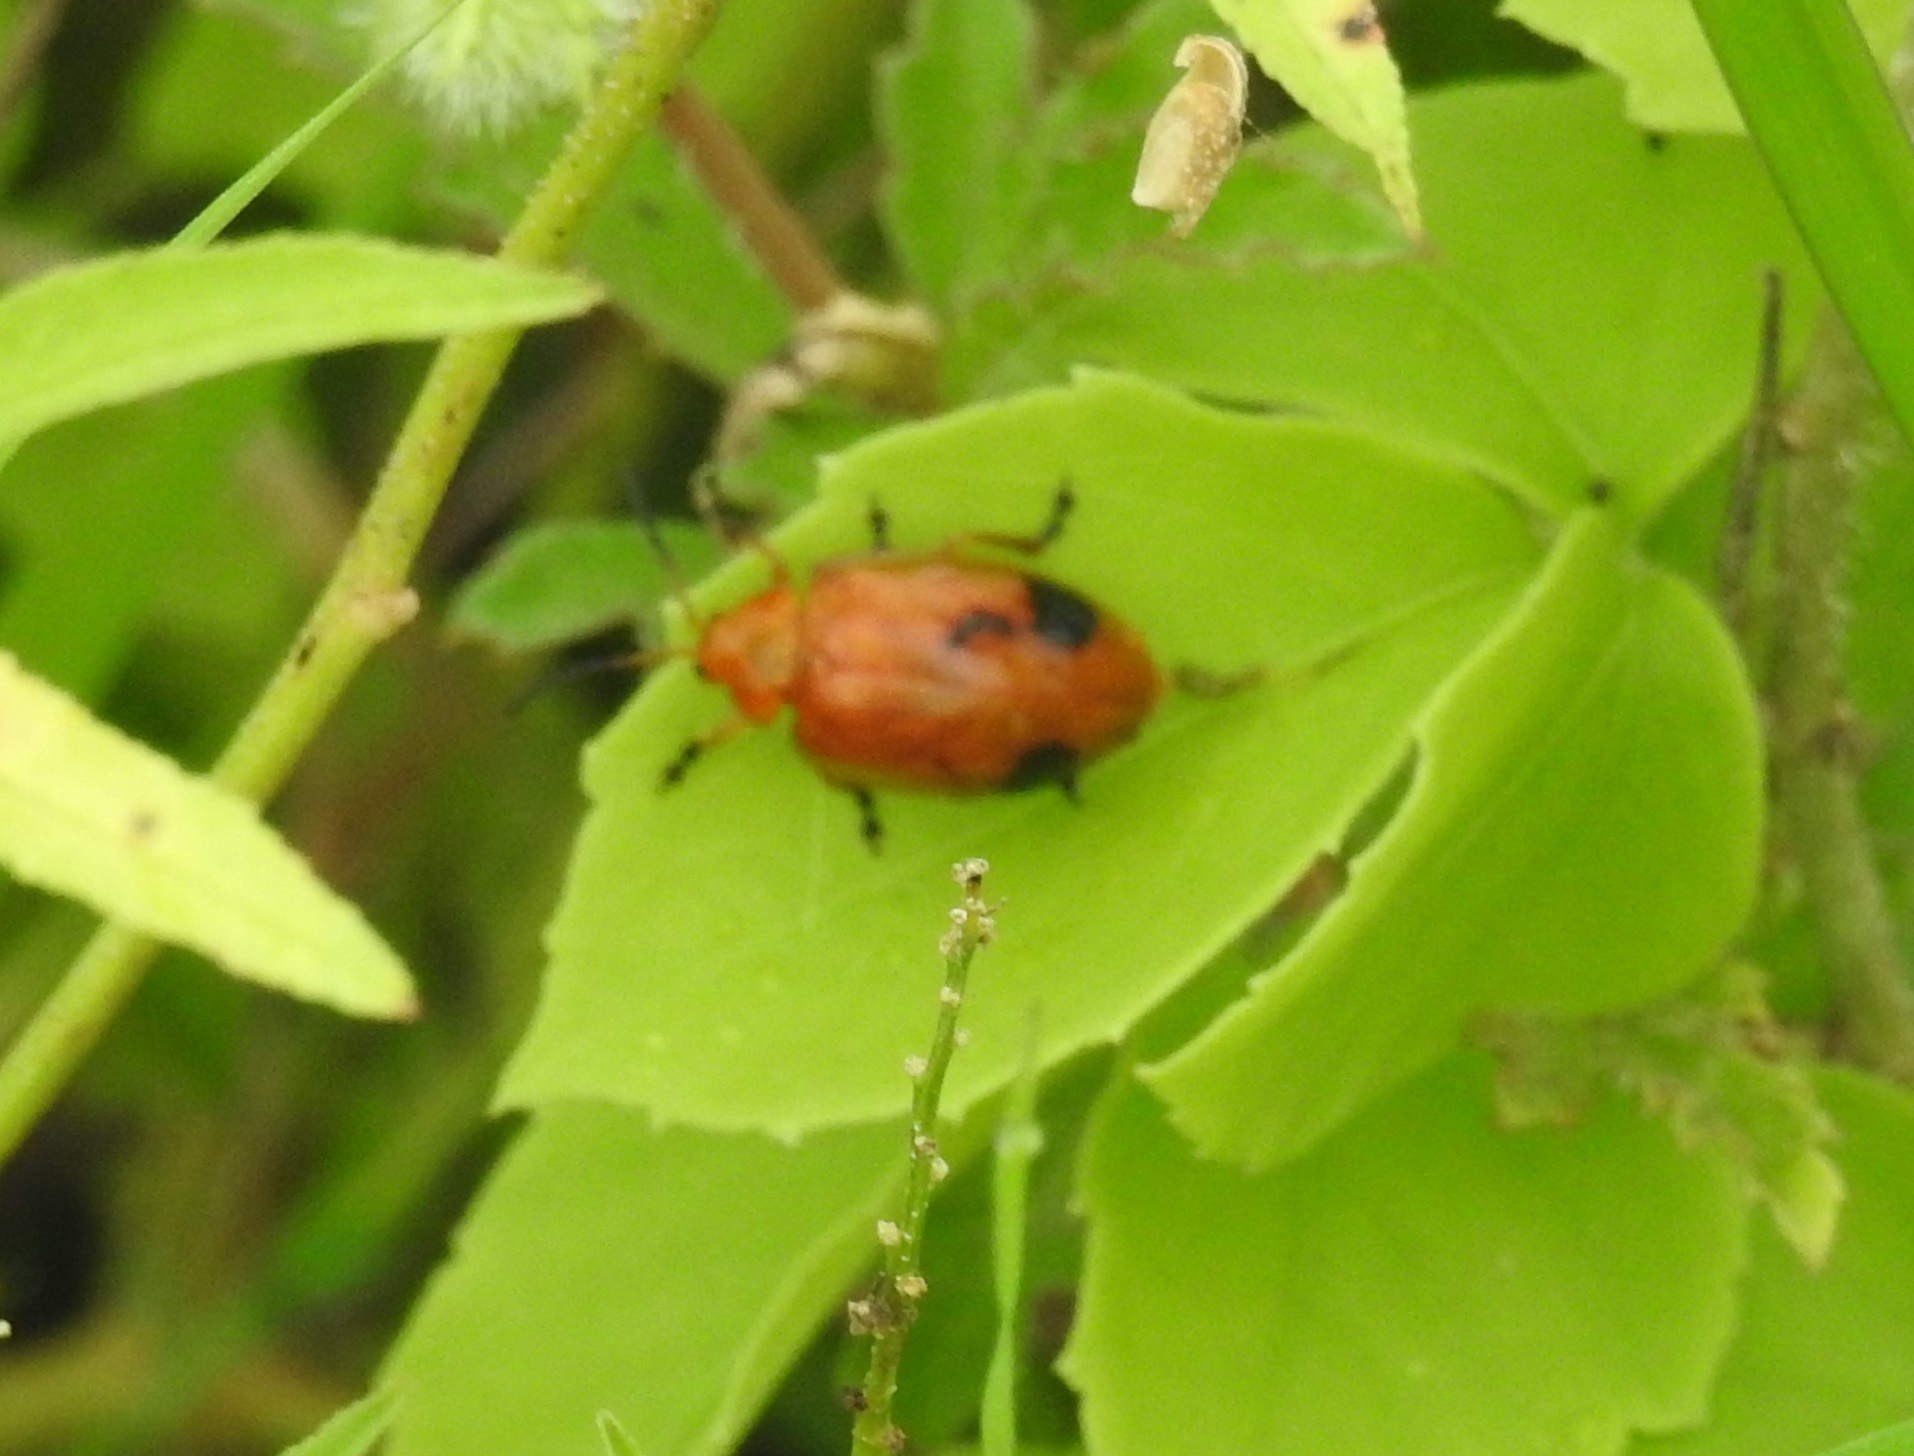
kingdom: Animalia
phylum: Arthropoda
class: Insecta
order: Coleoptera
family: Chrysomelidae
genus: Oides
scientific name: Oides palleata
